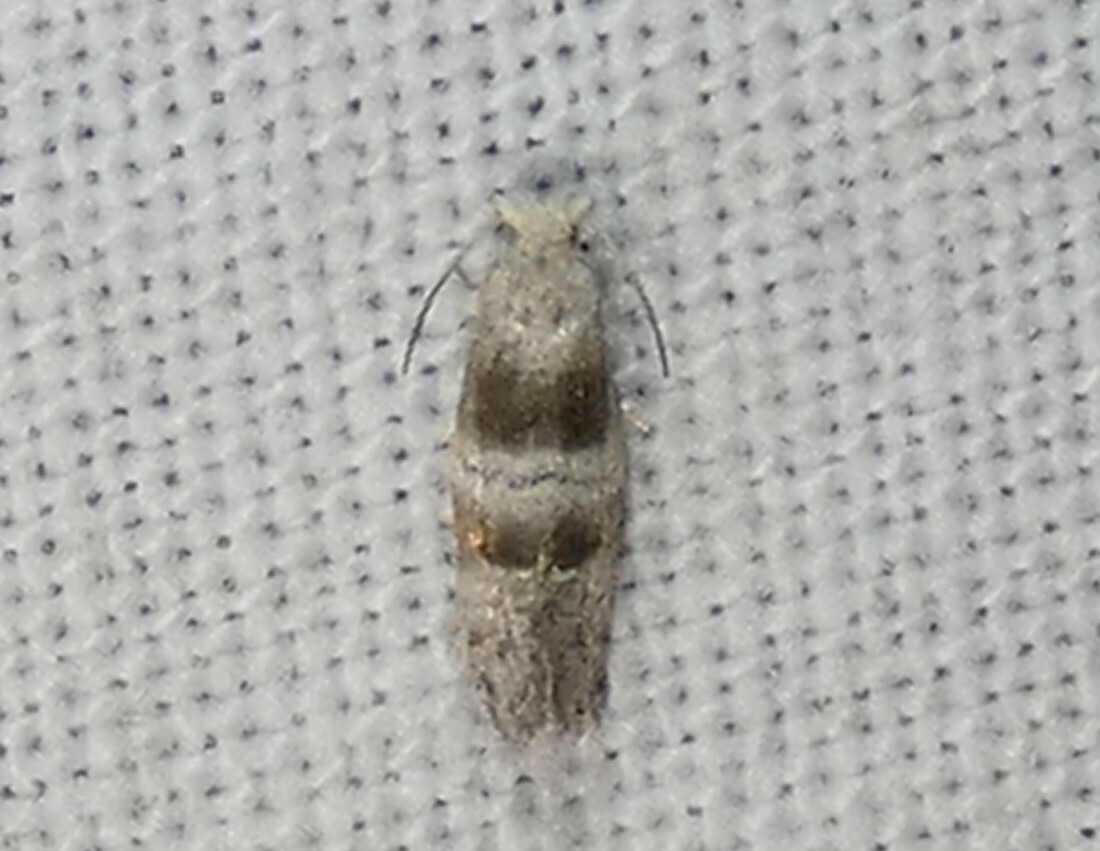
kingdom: Animalia
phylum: Arthropoda
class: Insecta
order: Lepidoptera
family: Tortricidae
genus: Corticivora
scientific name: Corticivora parva
